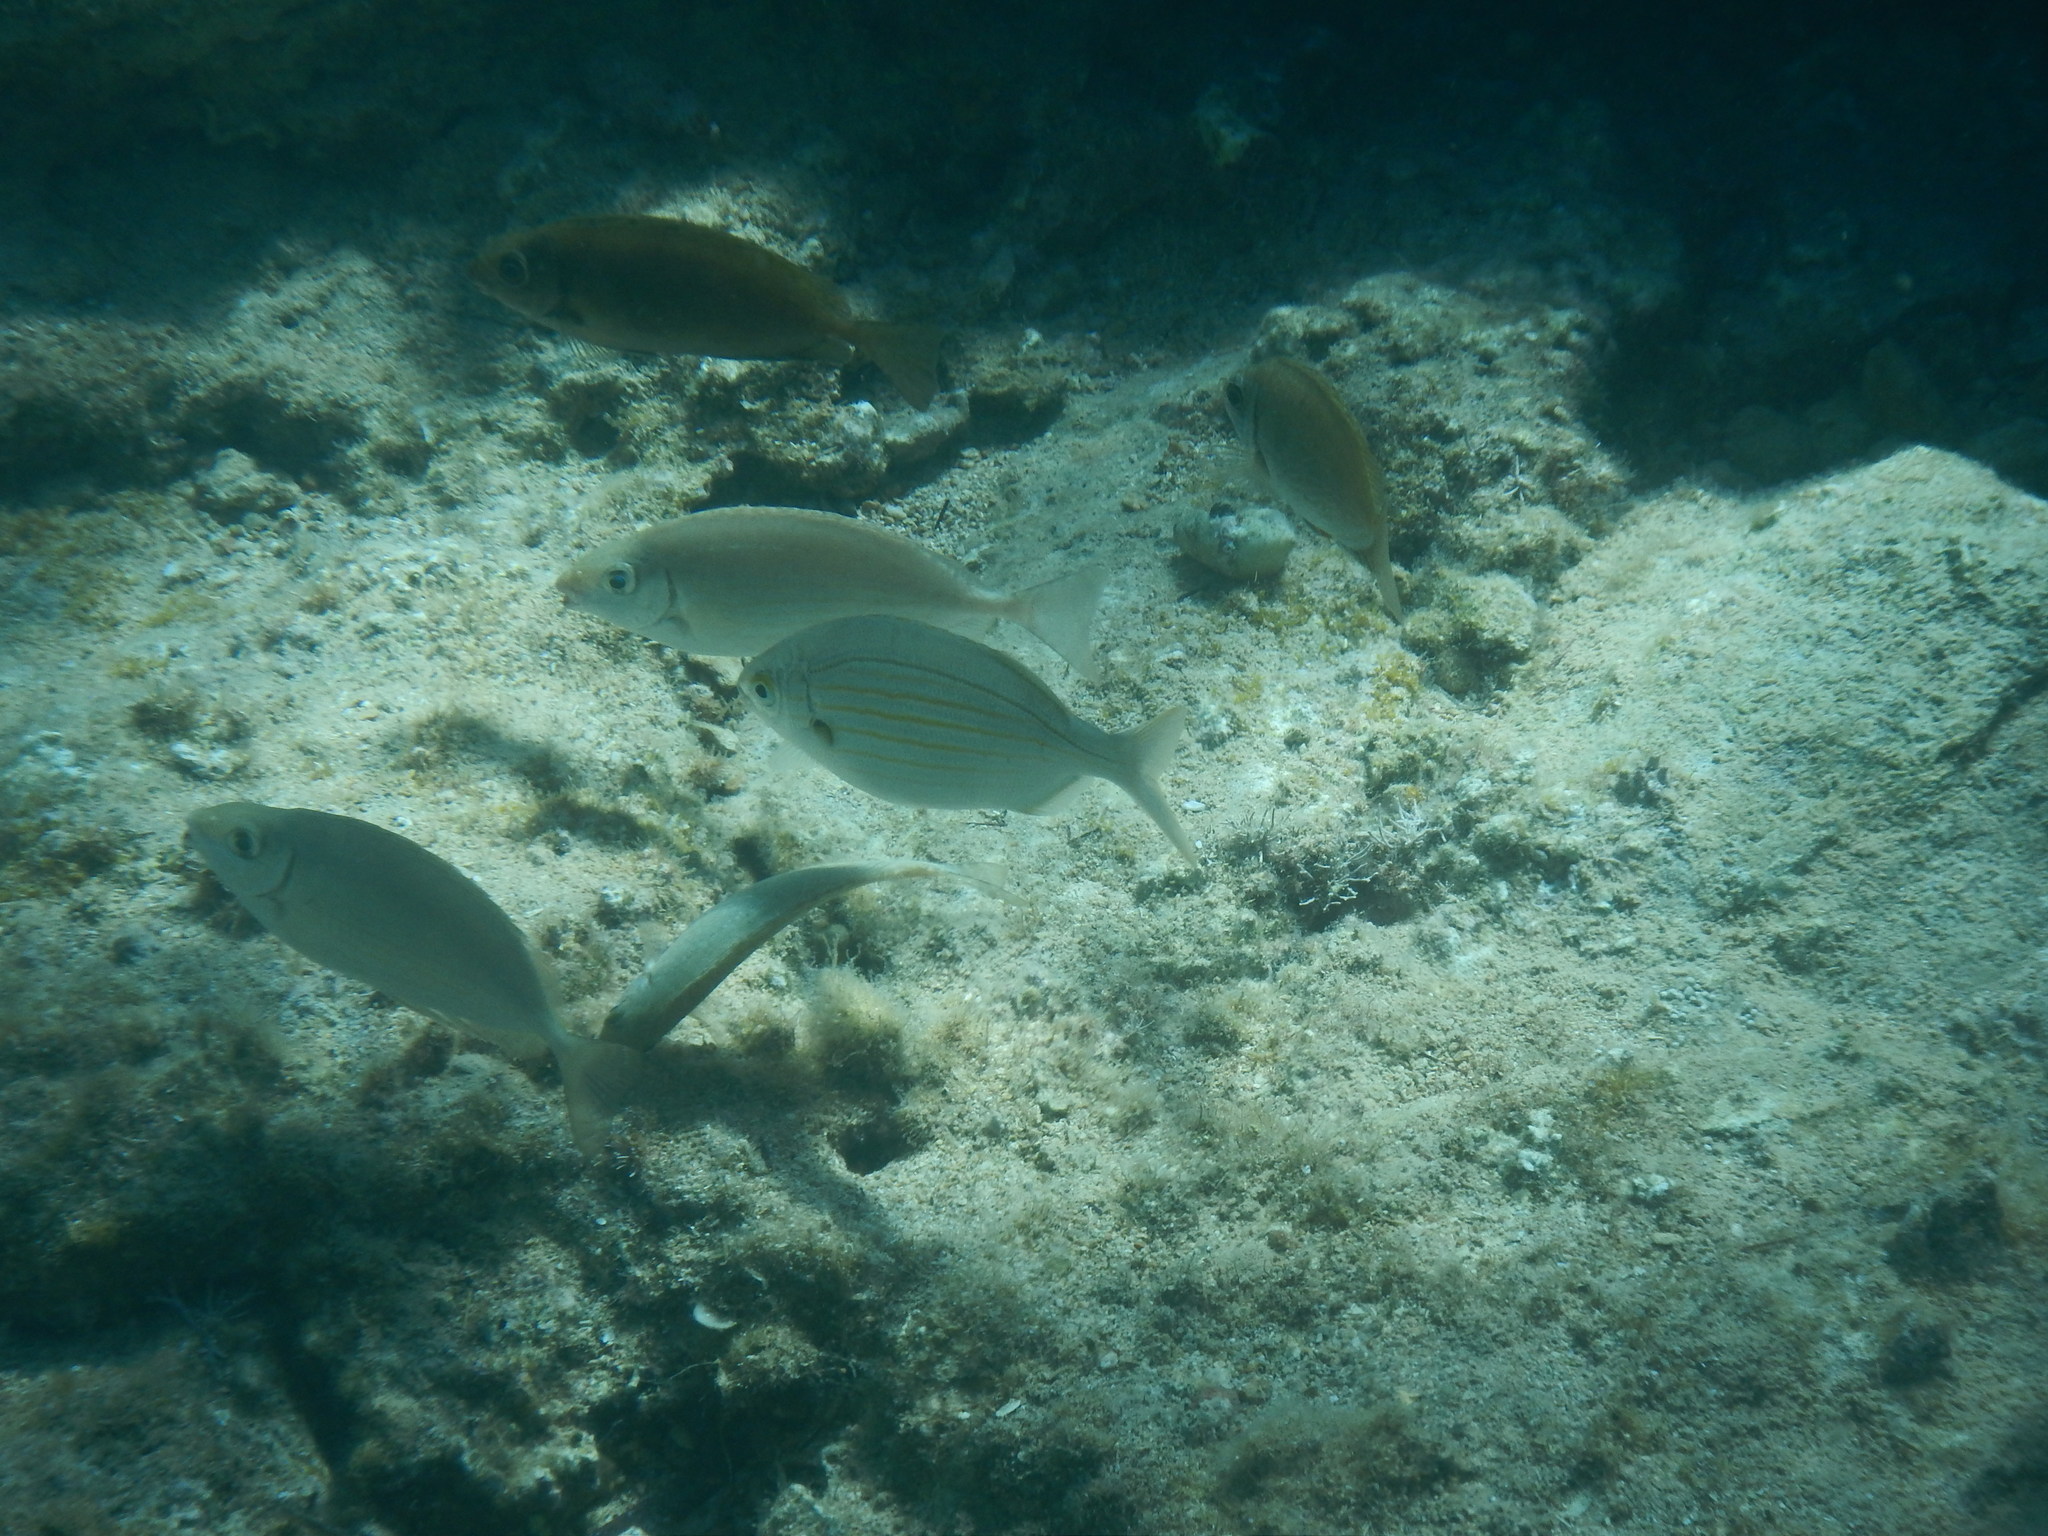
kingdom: Animalia
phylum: Chordata
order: Perciformes
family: Sparidae
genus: Sarpa
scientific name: Sarpa salpa
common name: Salema
